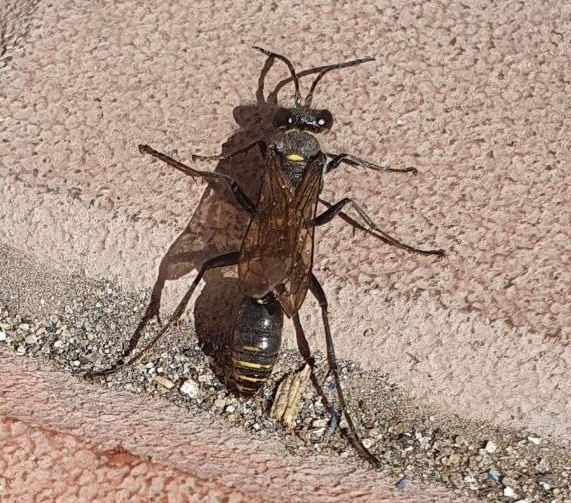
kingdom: Animalia
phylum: Arthropoda
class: Insecta
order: Hymenoptera
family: Sphecidae
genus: Sceliphron
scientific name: Sceliphron
